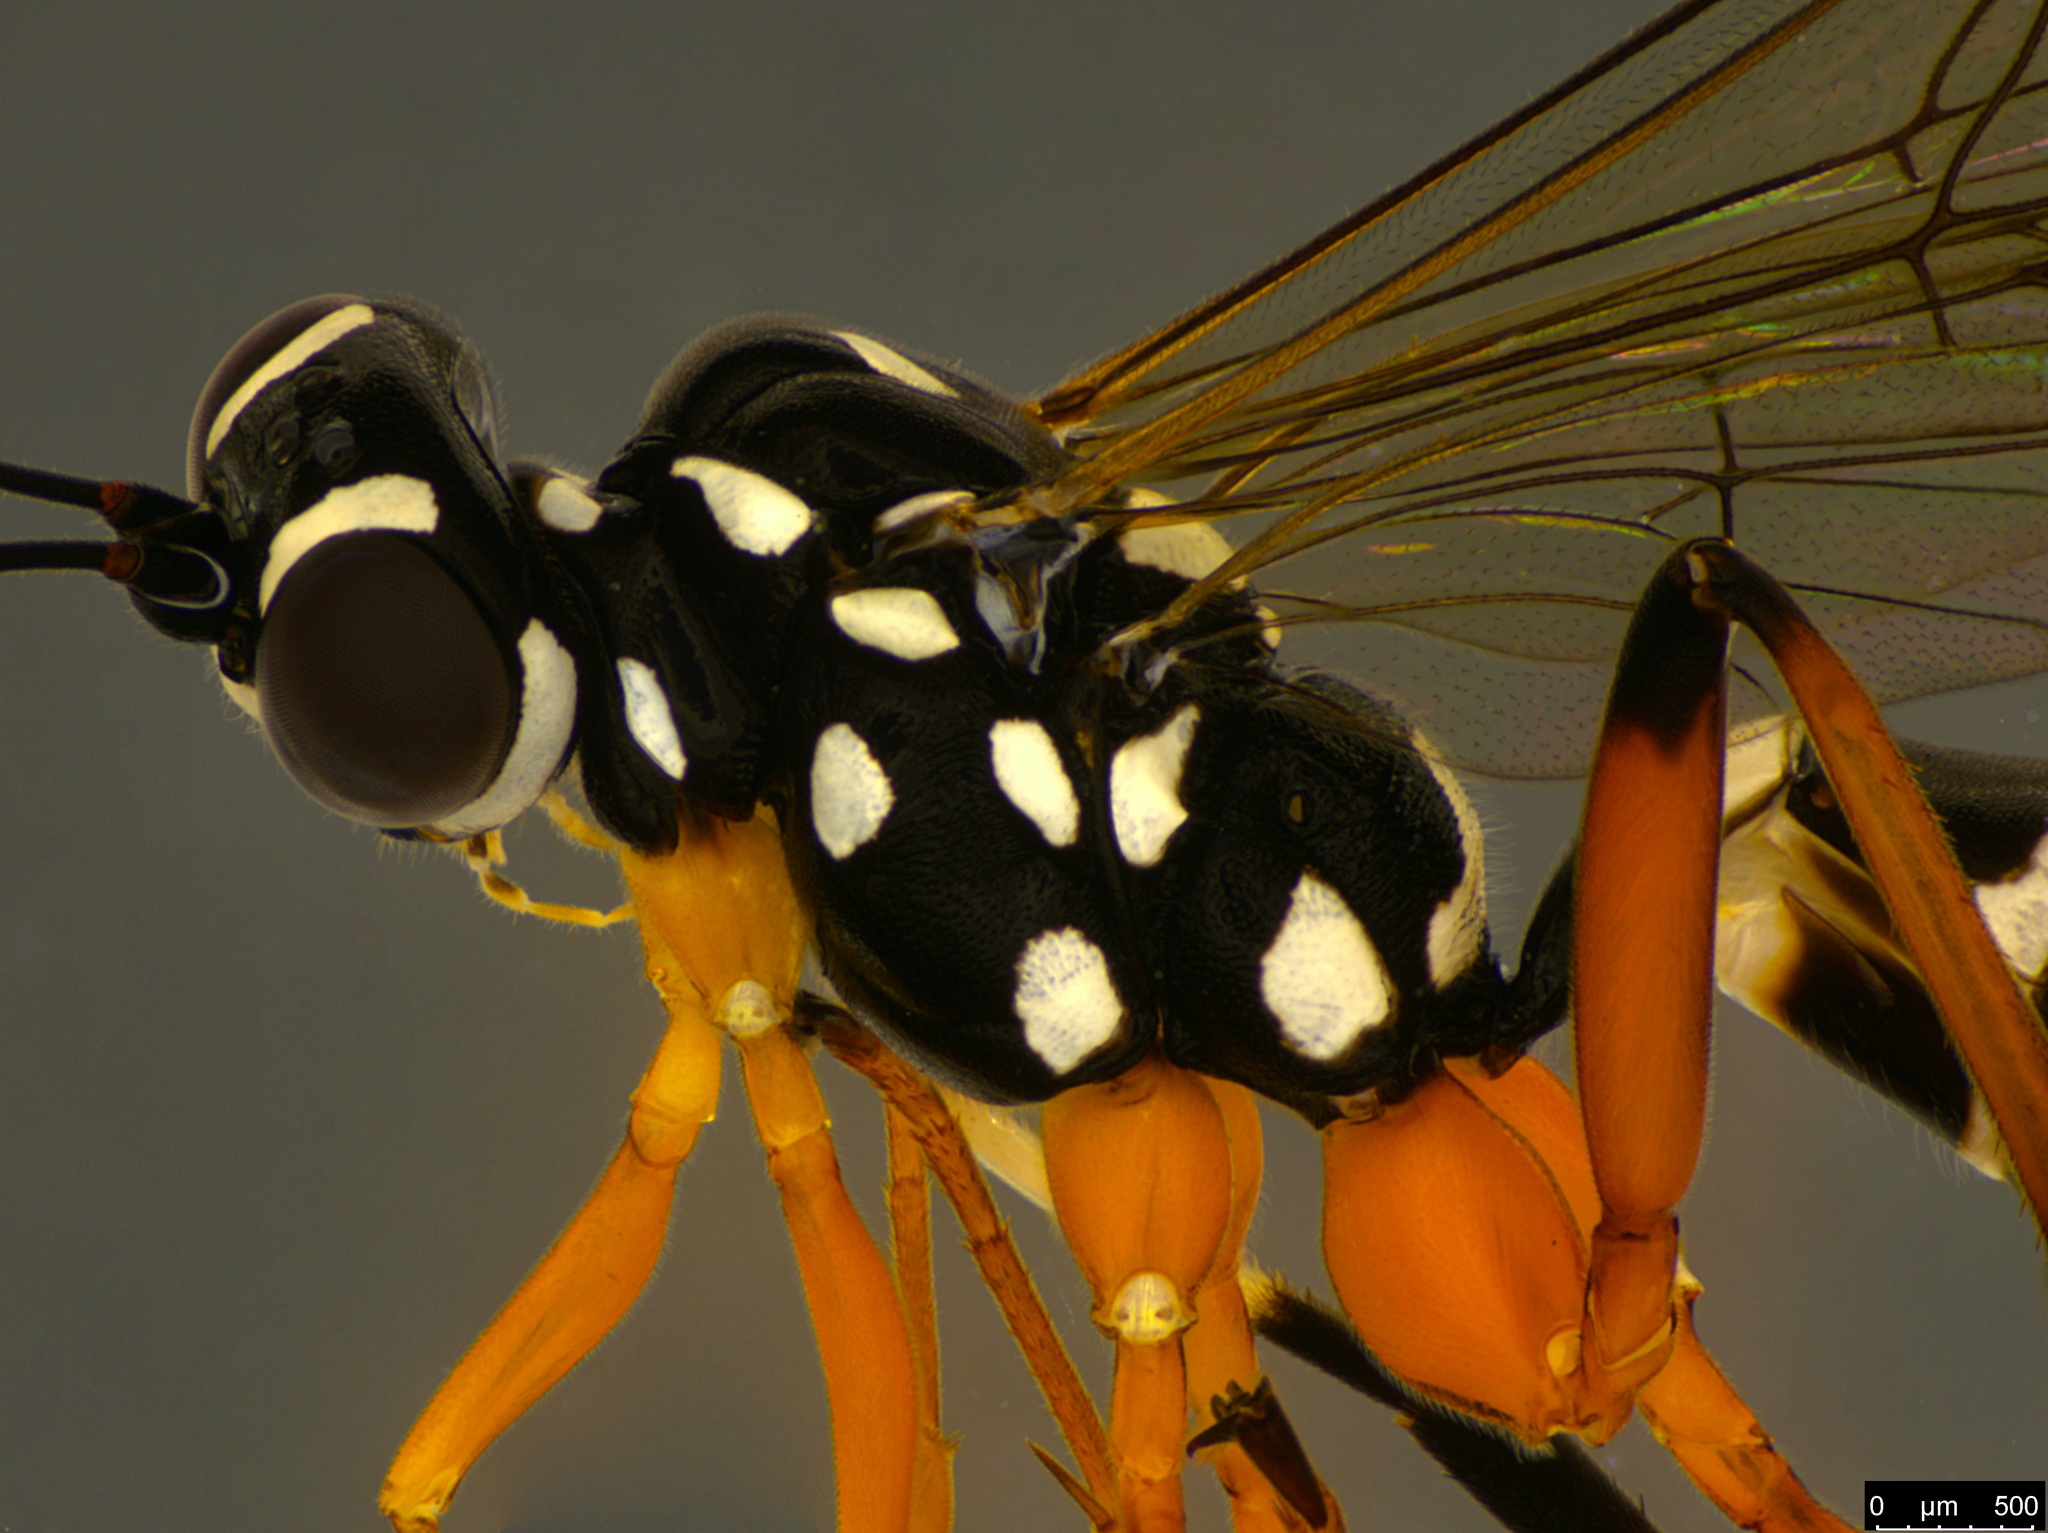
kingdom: Animalia
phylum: Arthropoda
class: Insecta
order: Hymenoptera
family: Ichneumonidae
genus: Xanthocryptus
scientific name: Xanthocryptus novozealandicus
